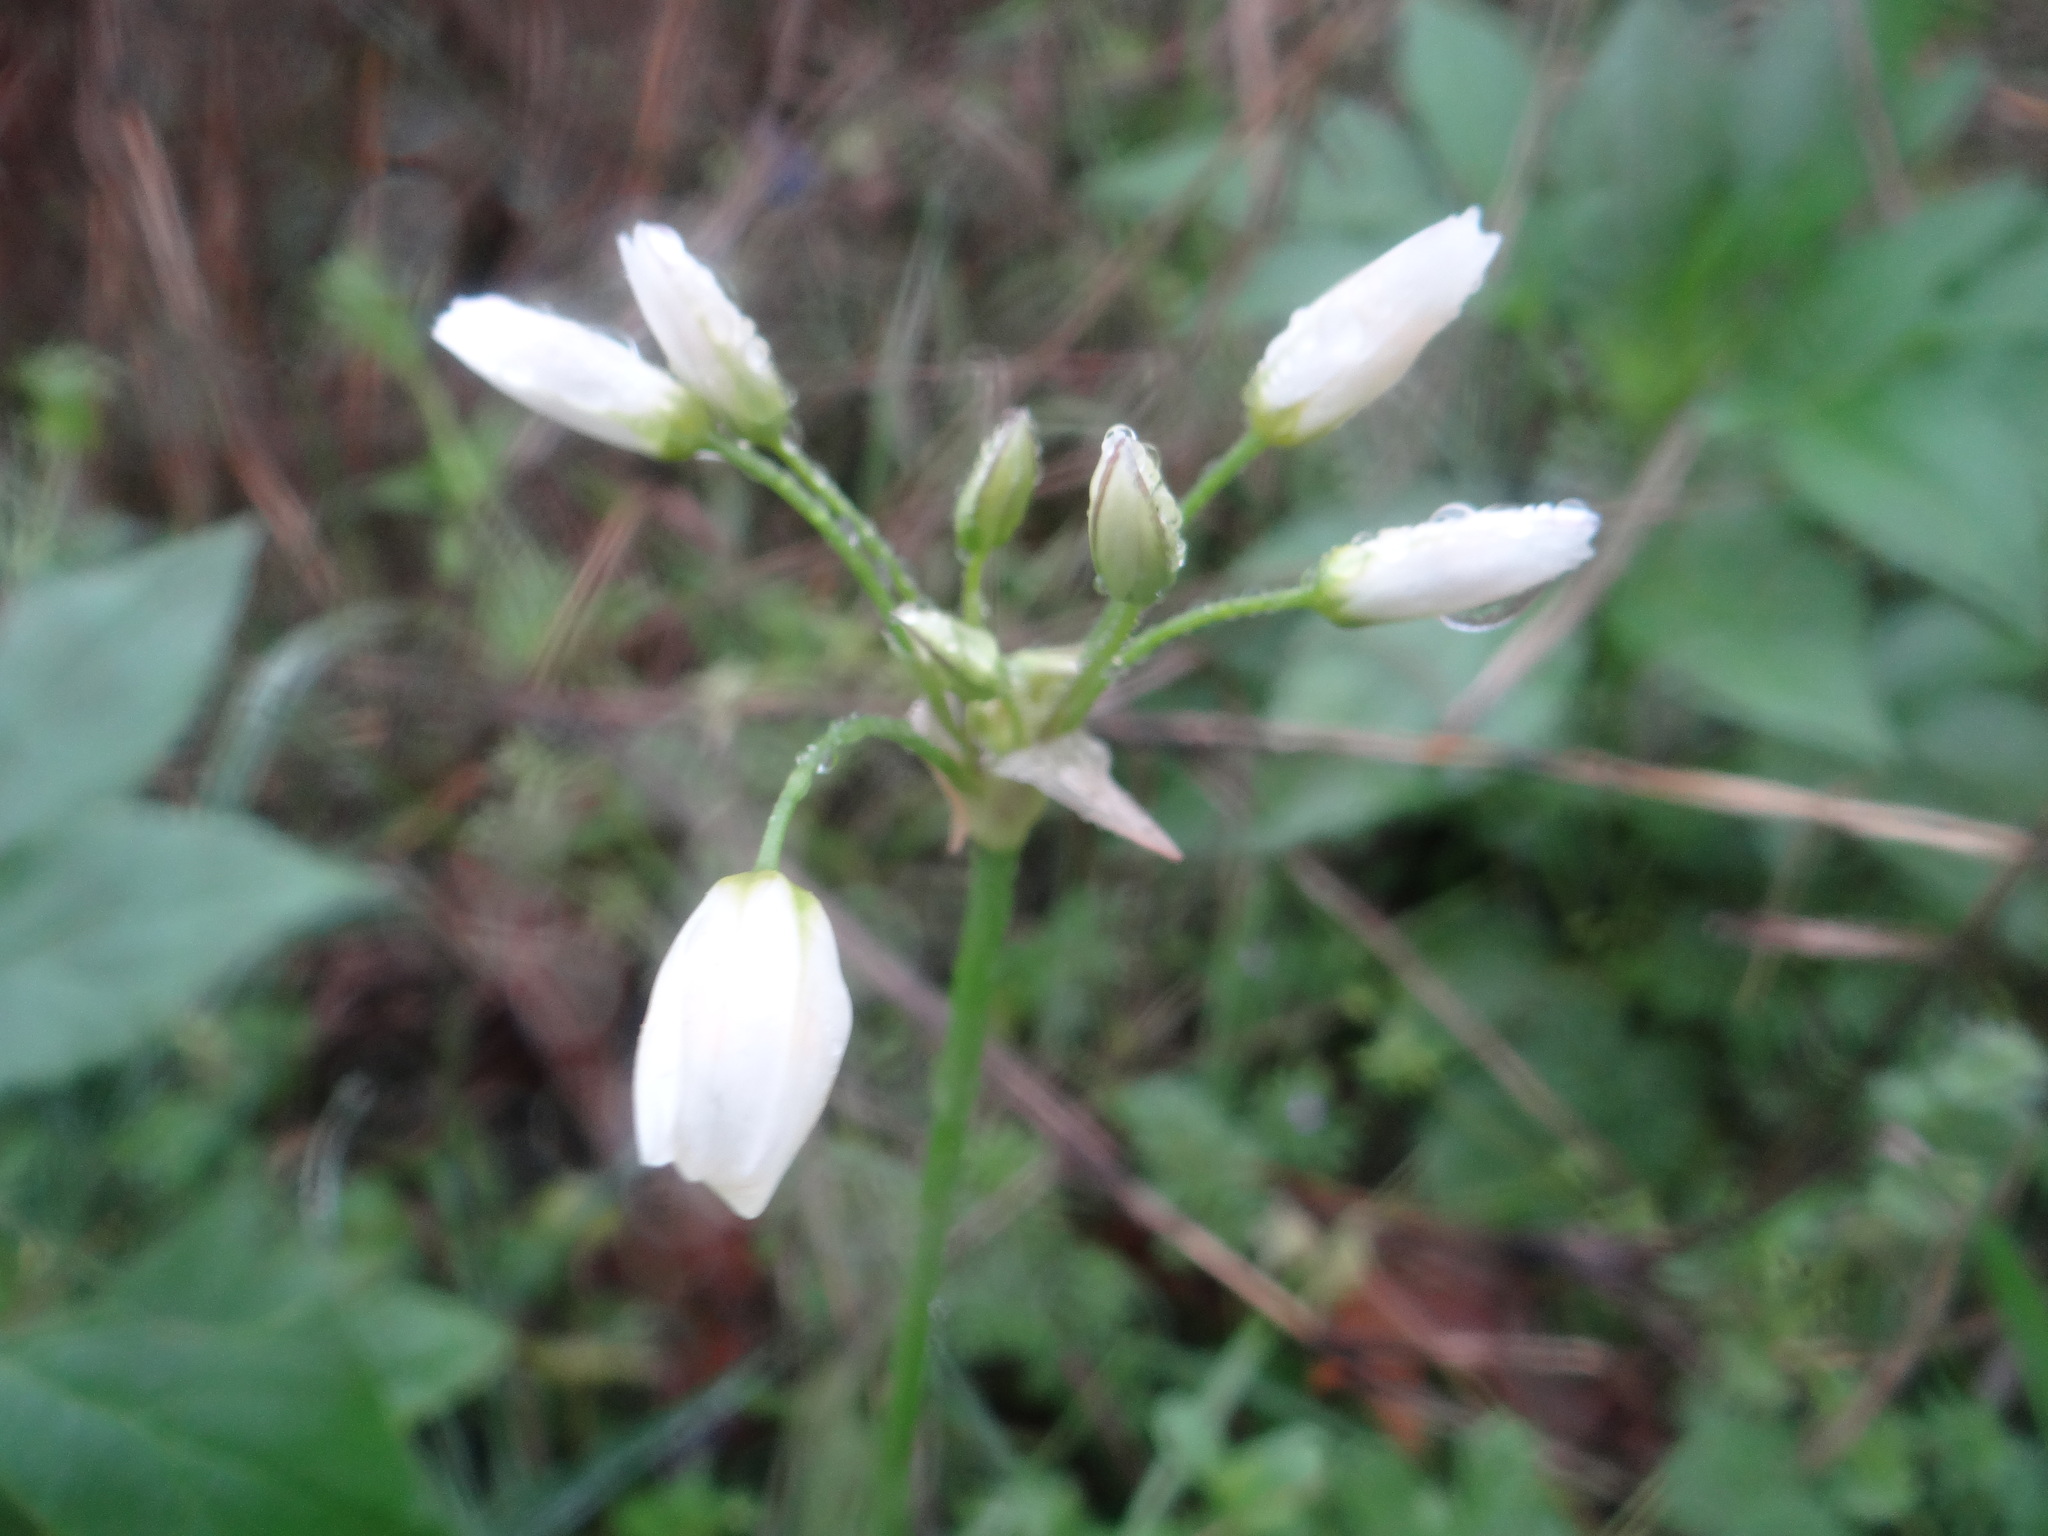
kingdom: Plantae
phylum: Tracheophyta
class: Liliopsida
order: Asparagales
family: Amaryllidaceae
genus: Nothoscordum
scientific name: Nothoscordum bivalve
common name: Crow-poison
